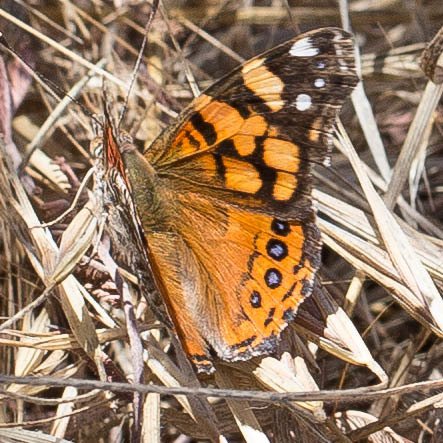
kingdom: Animalia
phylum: Arthropoda
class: Insecta
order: Lepidoptera
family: Nymphalidae
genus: Vanessa
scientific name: Vanessa annabella
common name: West coast lady
